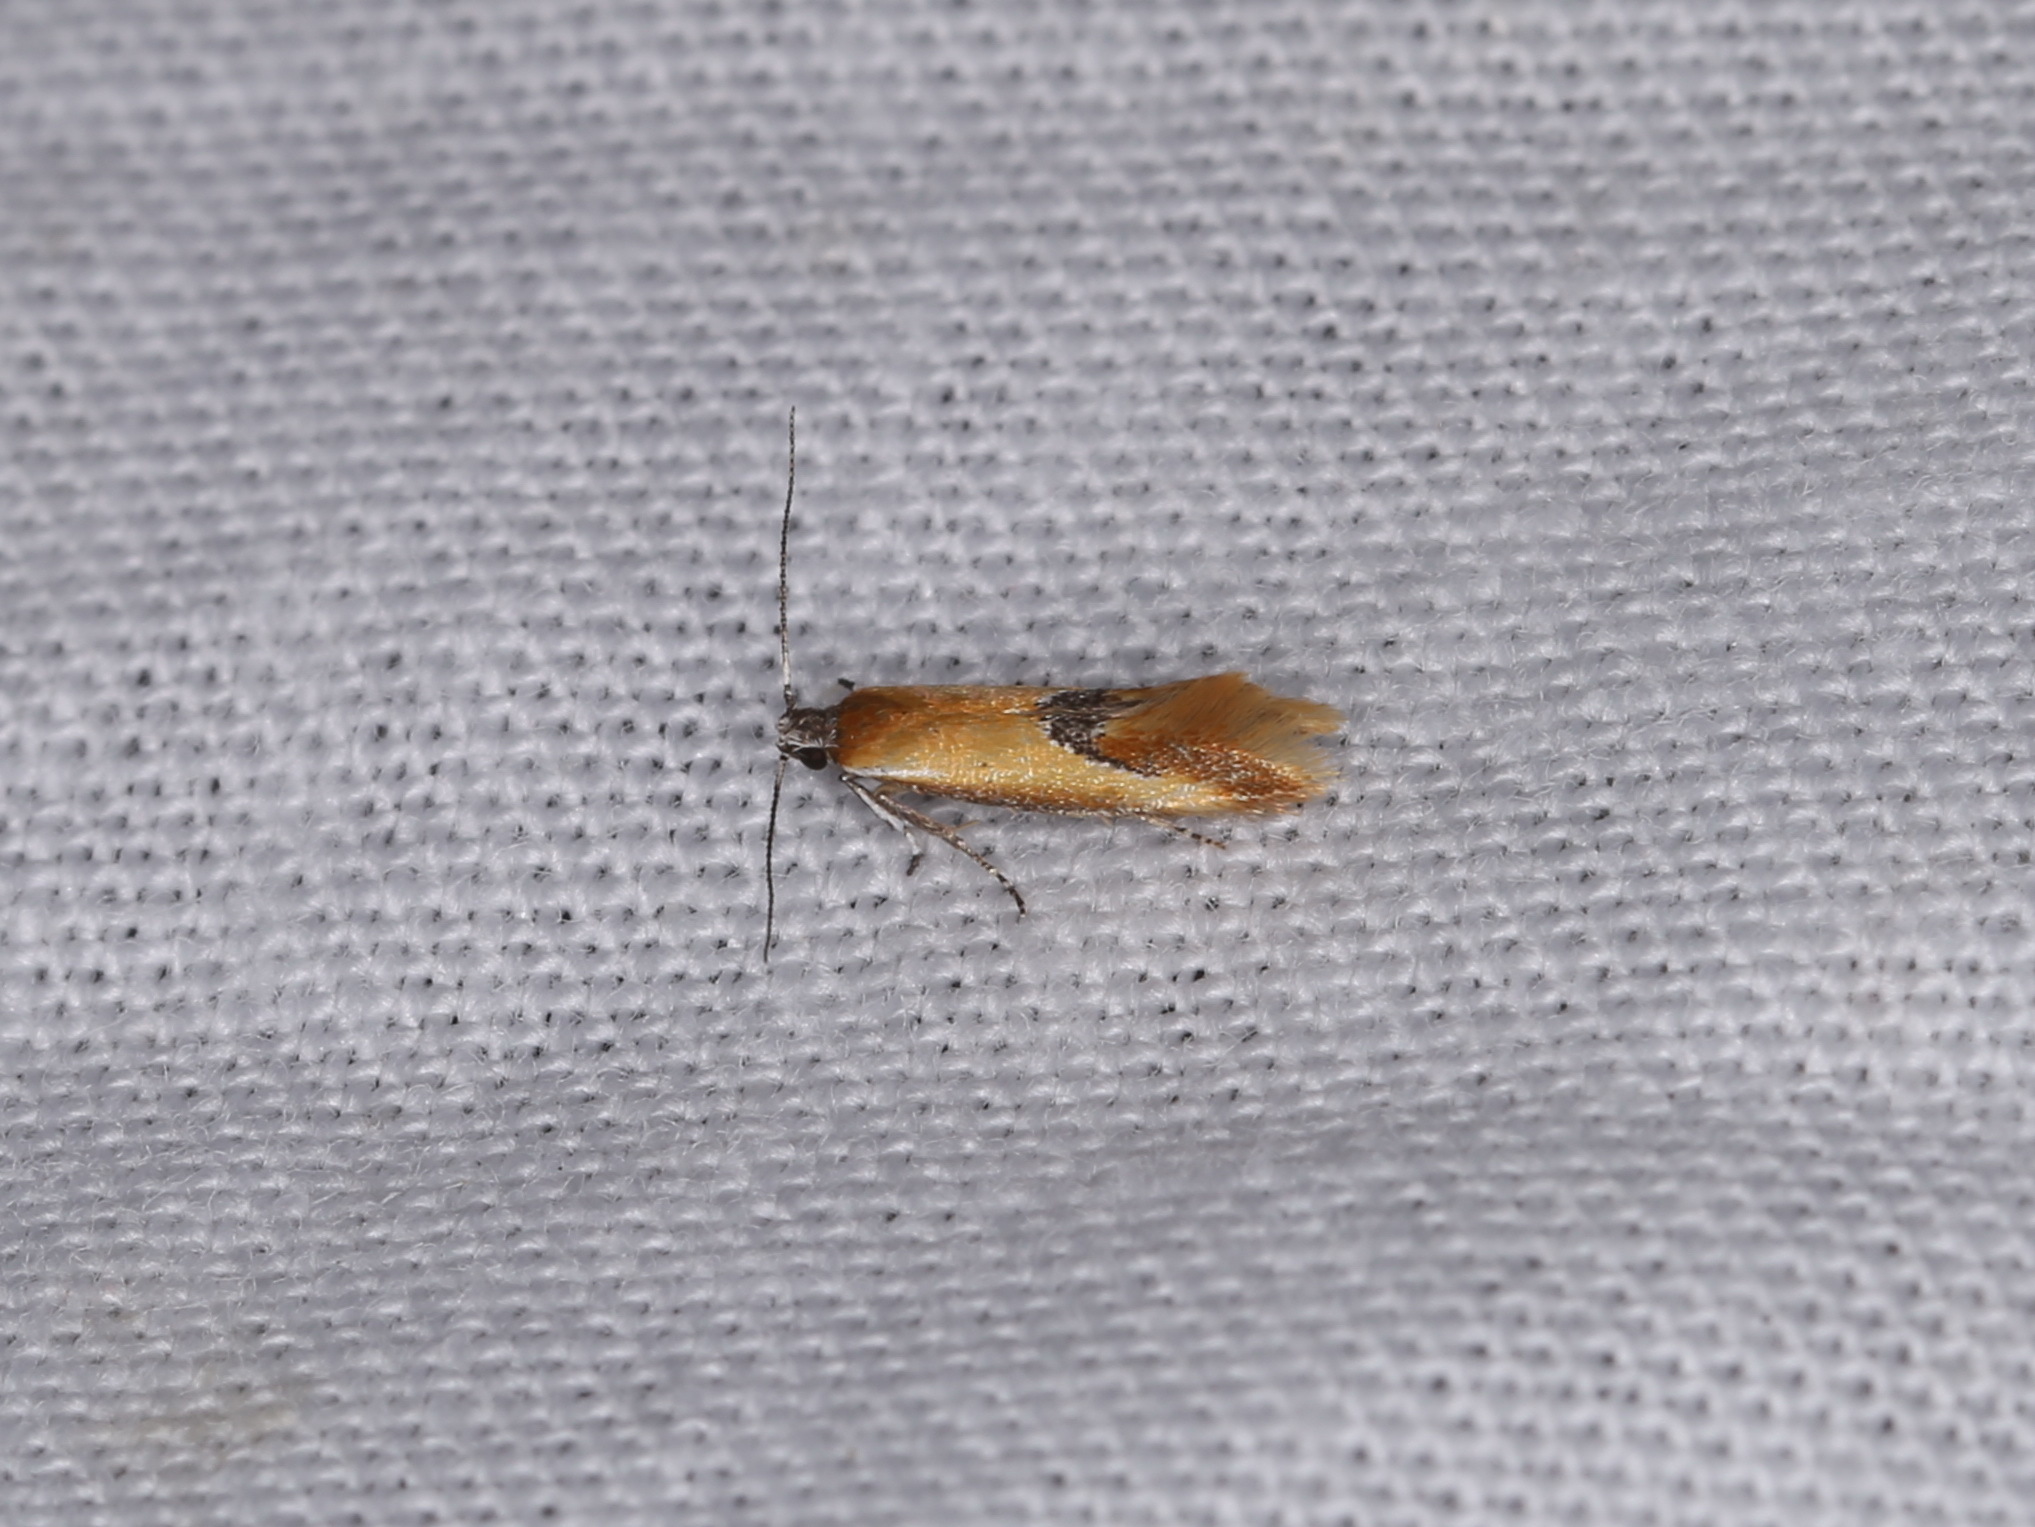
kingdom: Animalia
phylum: Arthropoda
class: Insecta
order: Lepidoptera
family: Oecophoridae
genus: Batia
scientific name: Batia lunaris
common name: Moth
